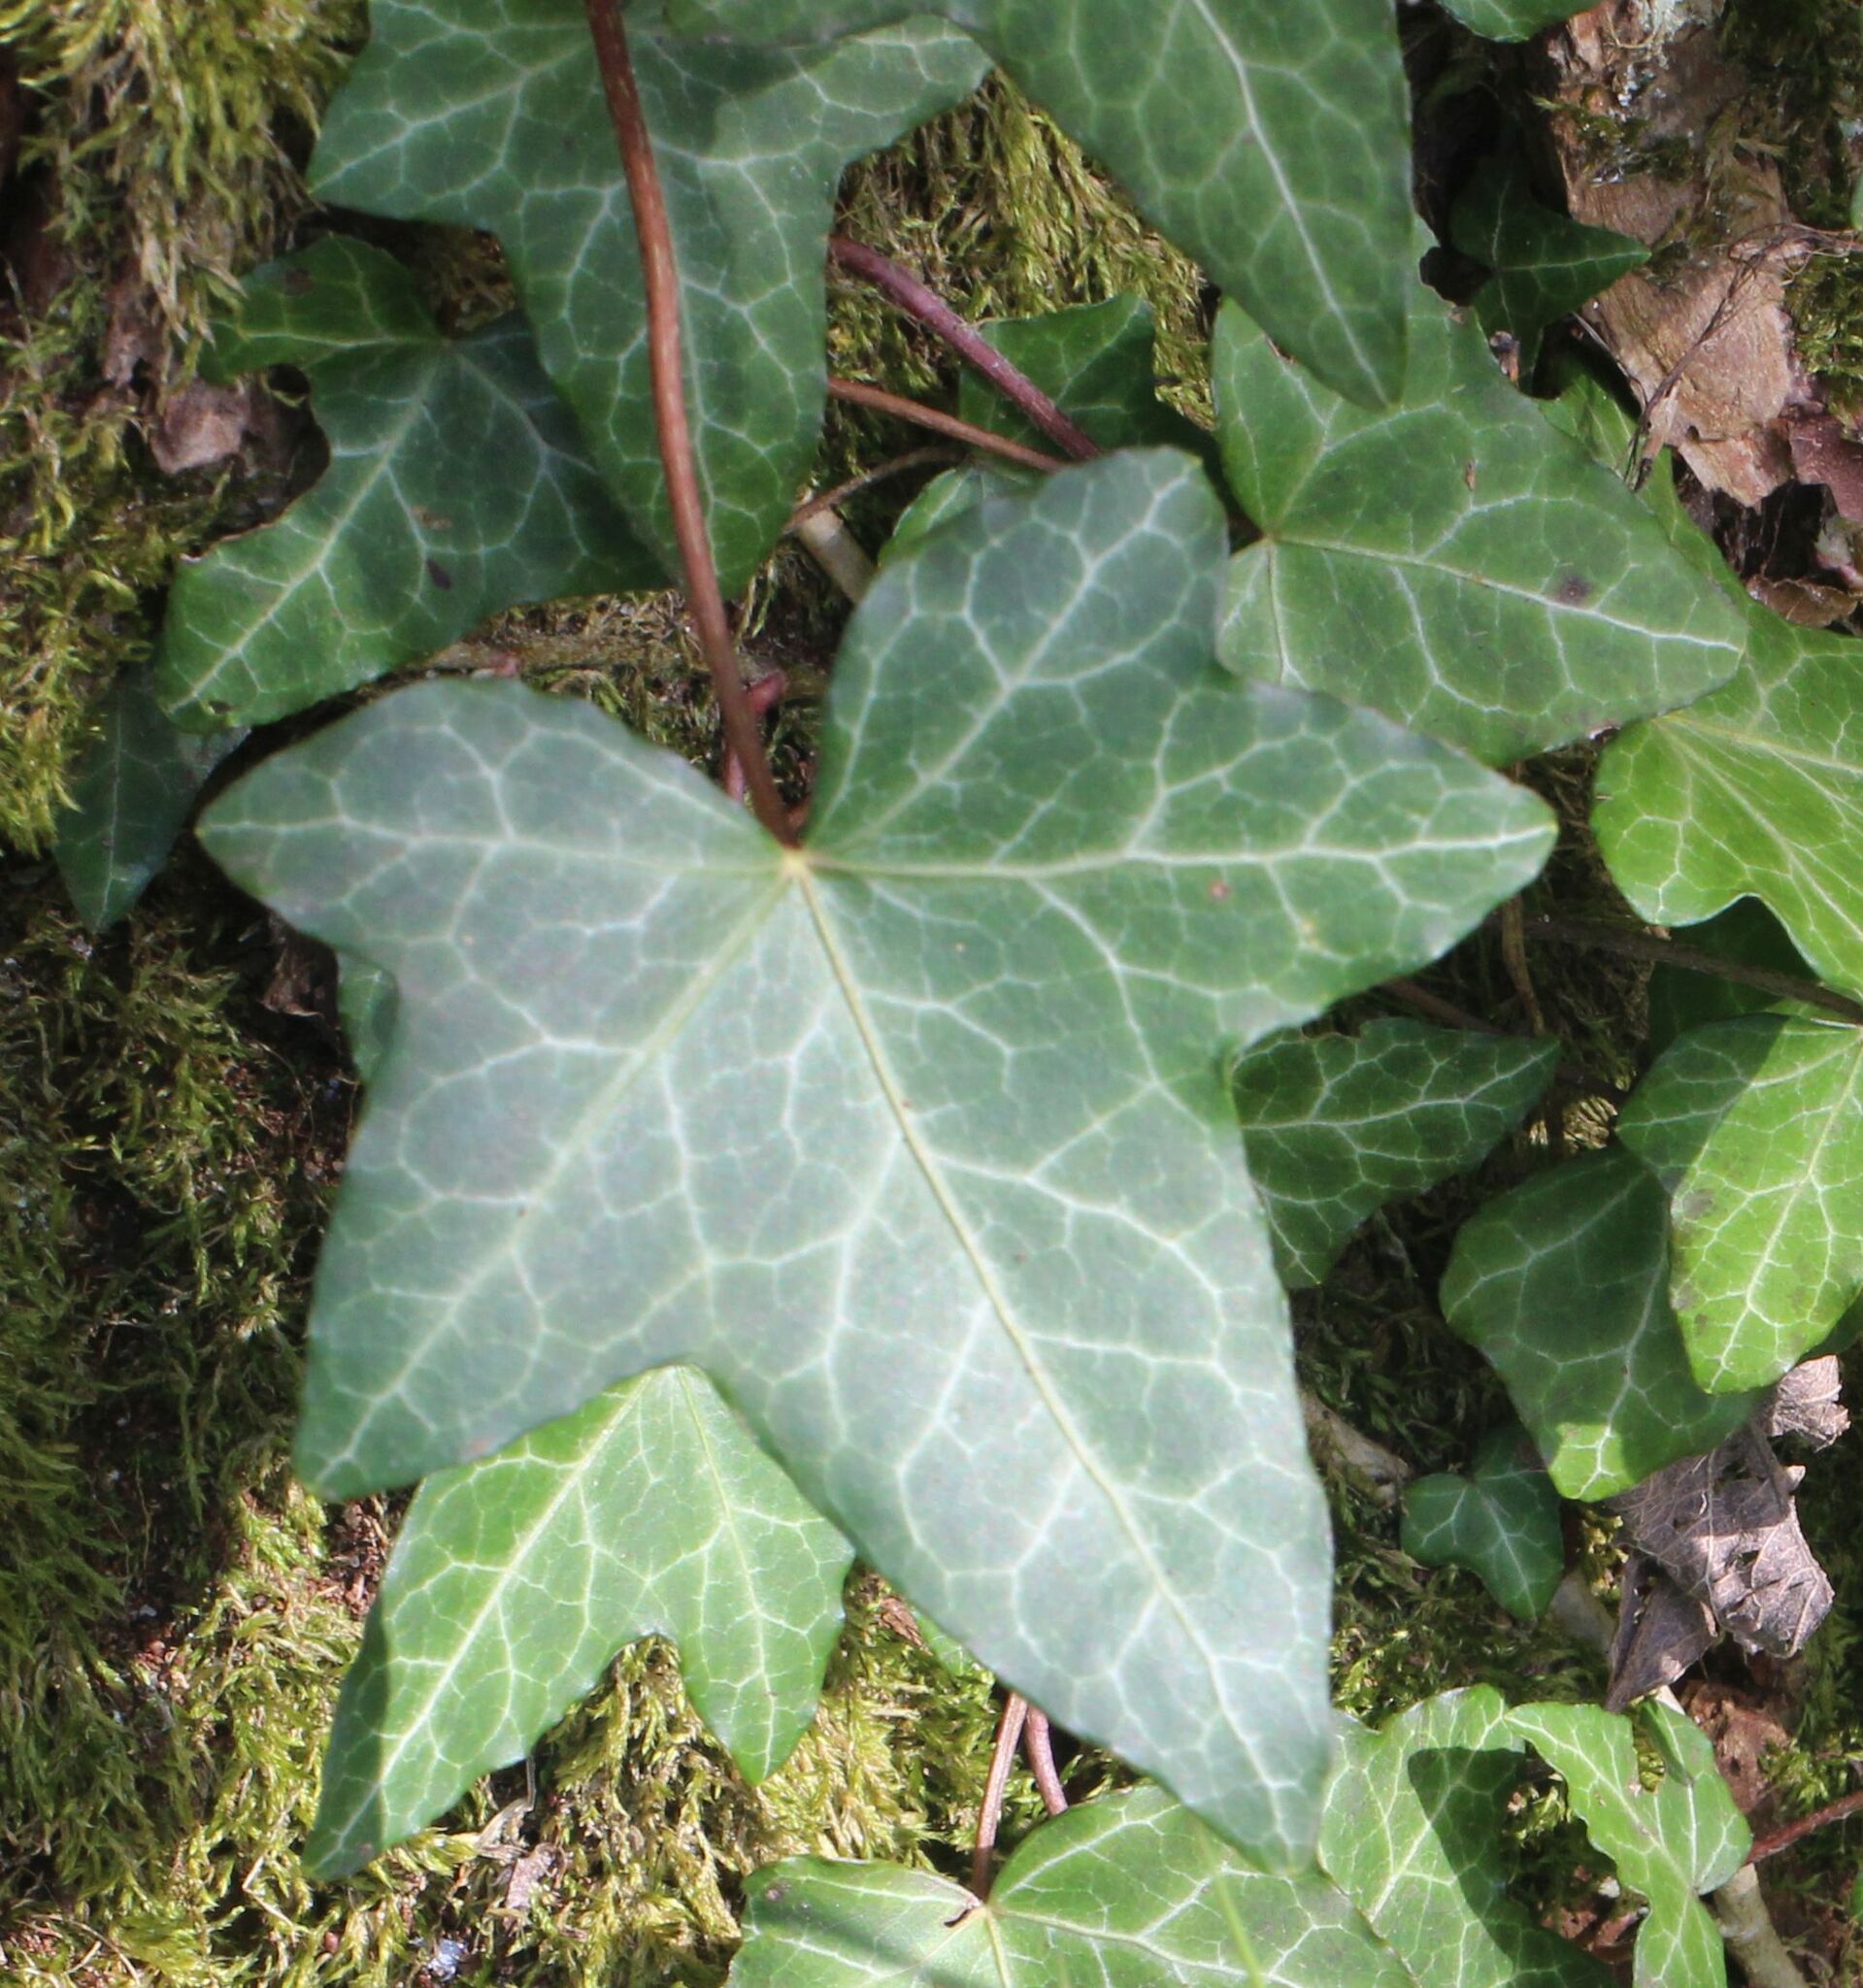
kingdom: Plantae
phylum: Tracheophyta
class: Magnoliopsida
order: Apiales
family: Araliaceae
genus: Hedera
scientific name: Hedera helix
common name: Ivy
